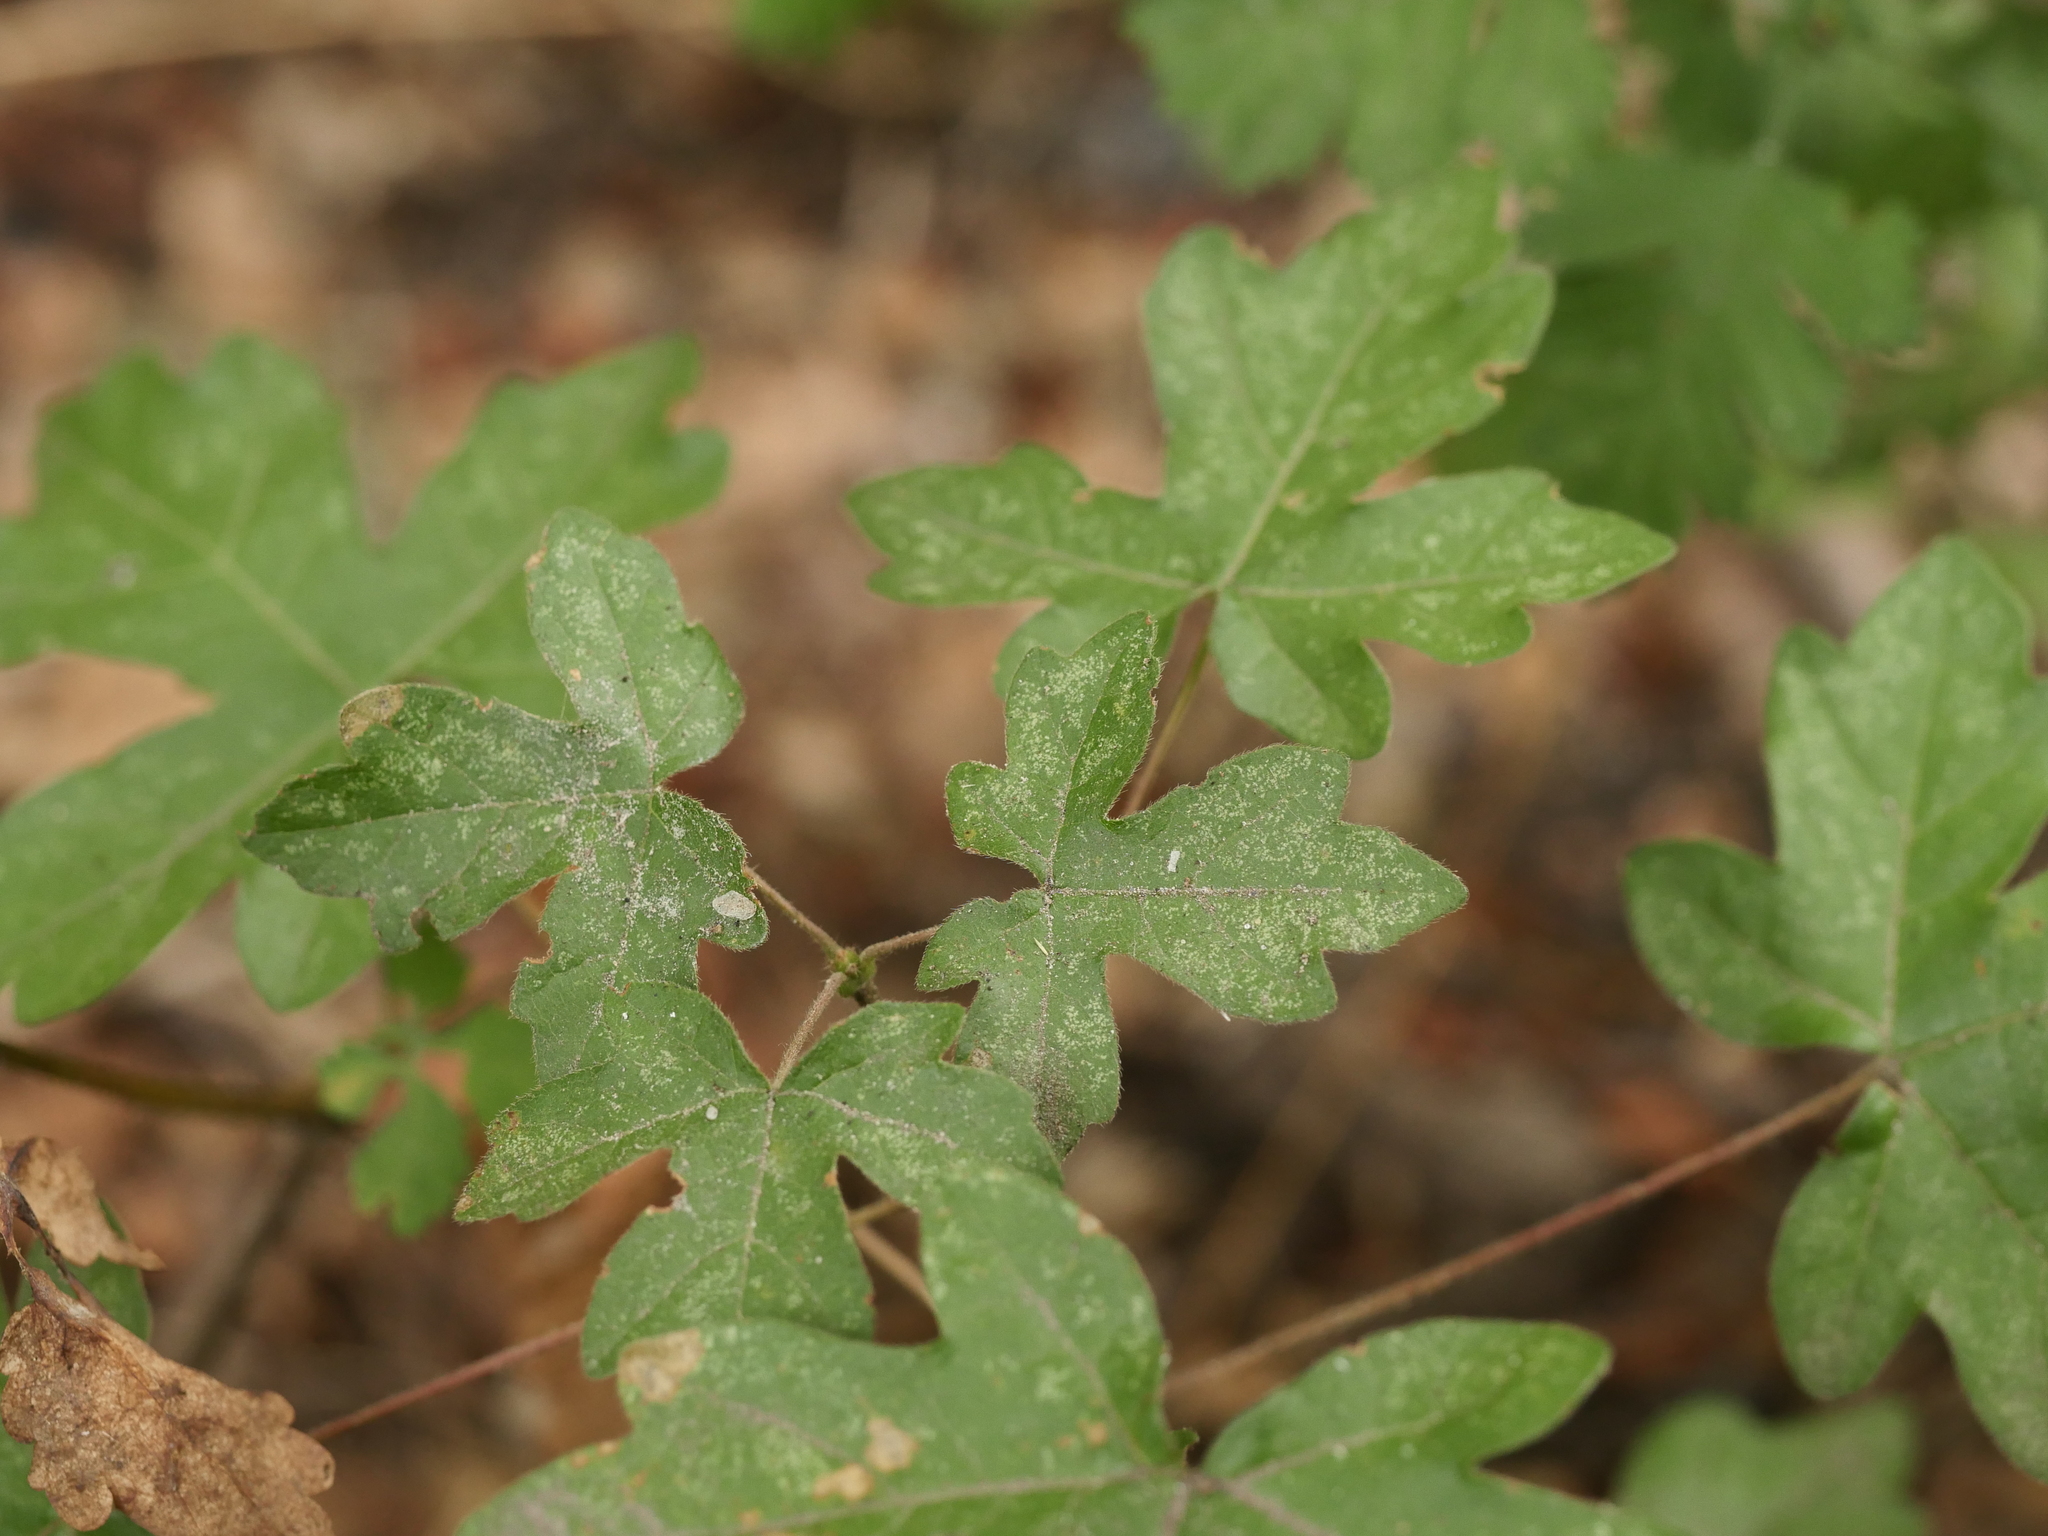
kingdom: Plantae
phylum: Tracheophyta
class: Magnoliopsida
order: Sapindales
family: Sapindaceae
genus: Acer
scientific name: Acer campestre
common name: Field maple
